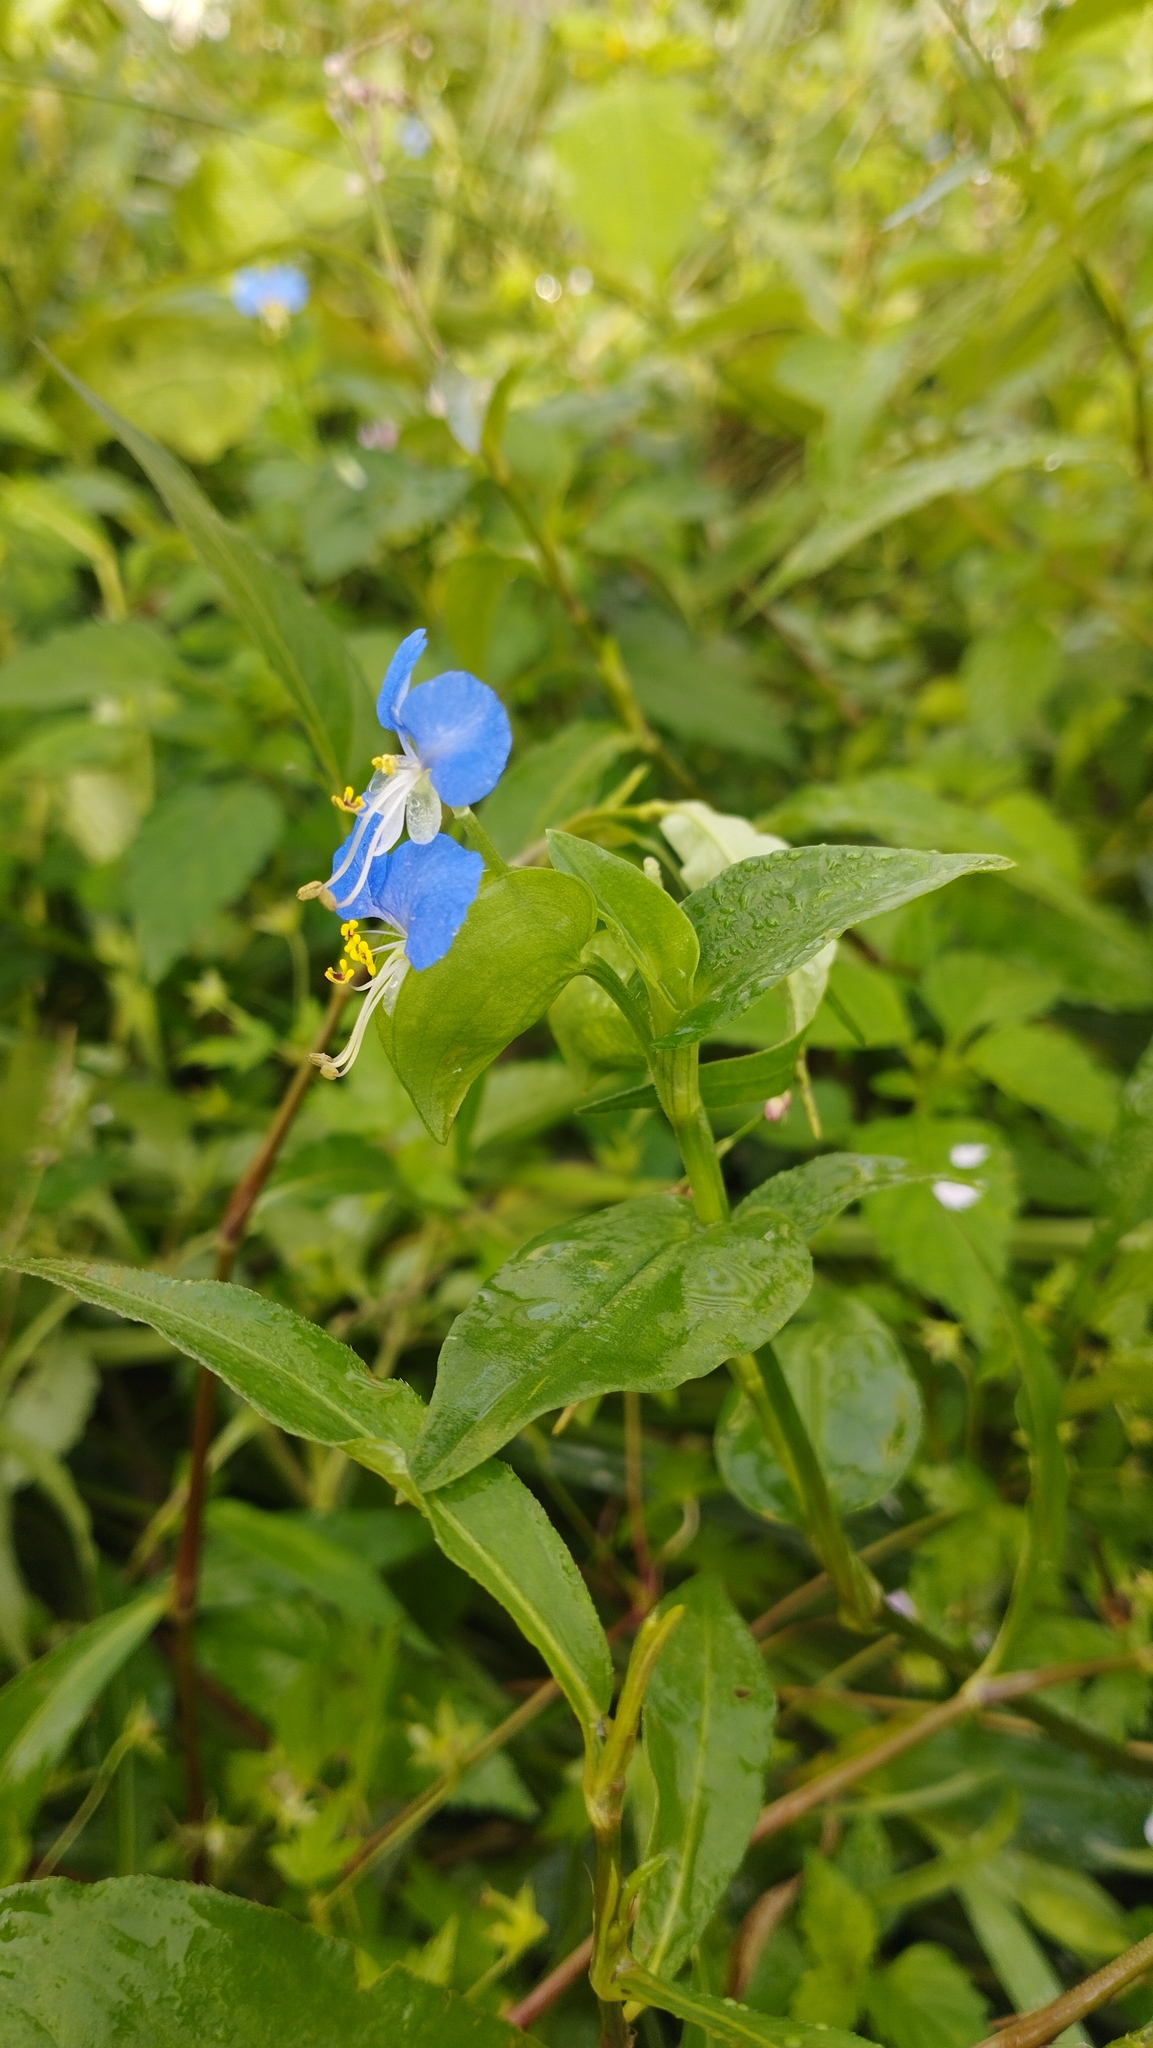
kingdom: Plantae
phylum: Tracheophyta
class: Liliopsida
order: Commelinales
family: Commelinaceae
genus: Commelina
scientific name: Commelina communis
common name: Asiatic dayflower
